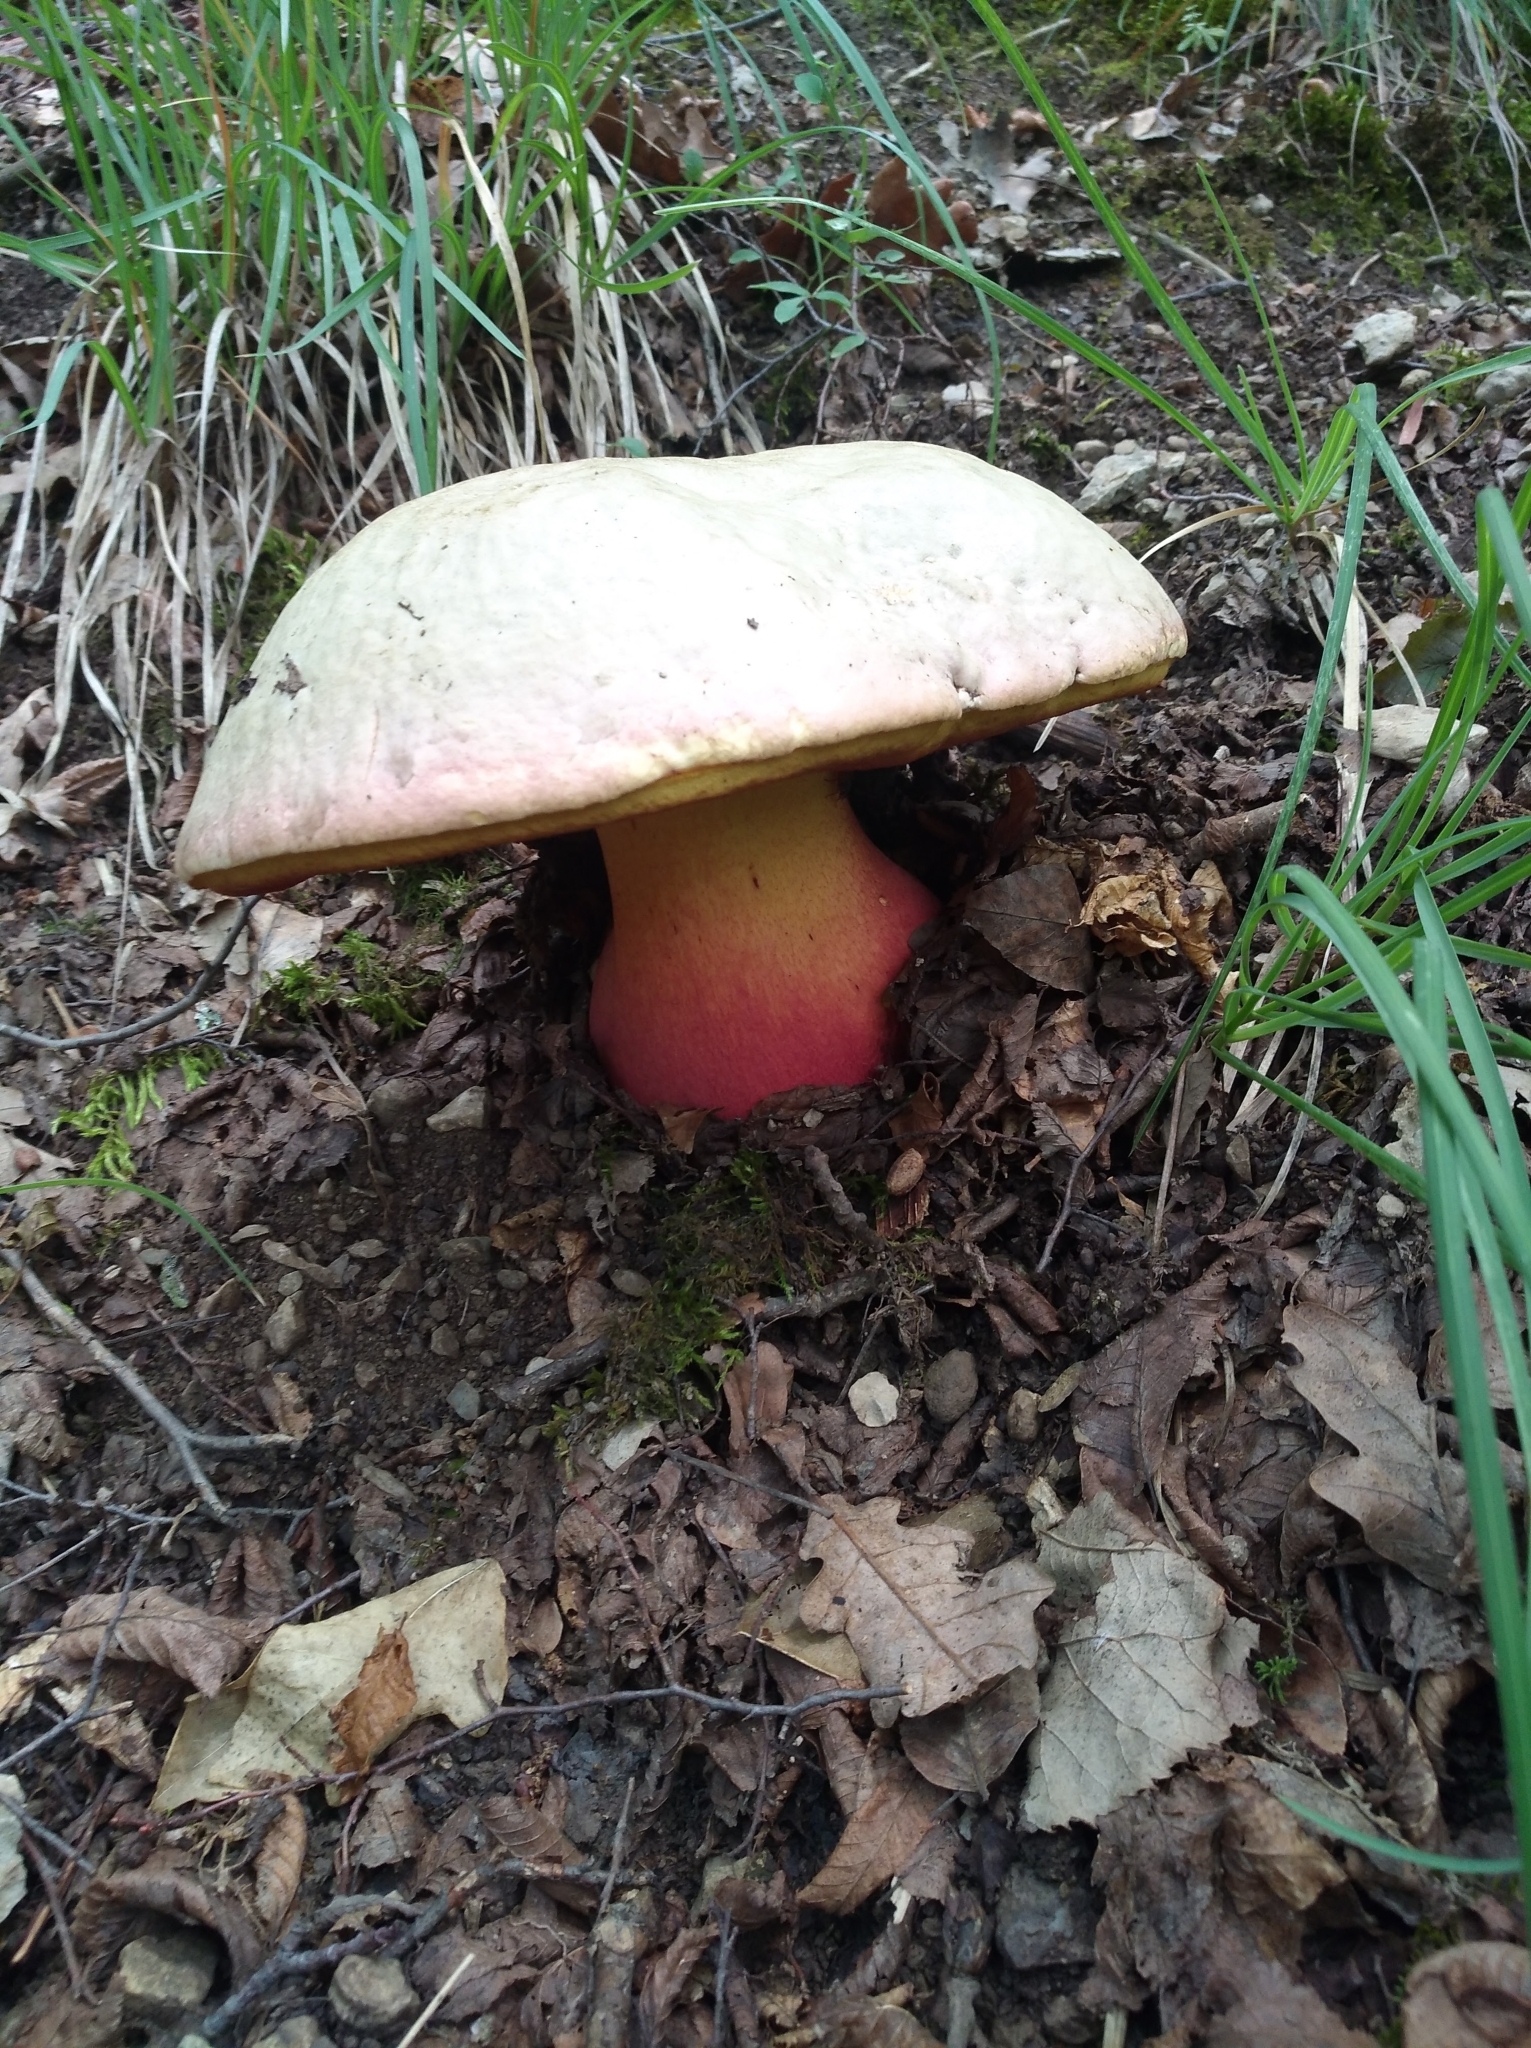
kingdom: Fungi
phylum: Basidiomycota
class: Agaricomycetes
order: Boletales
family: Boletaceae
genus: Rubroboletus
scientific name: Rubroboletus satanas
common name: Devil's bolete
